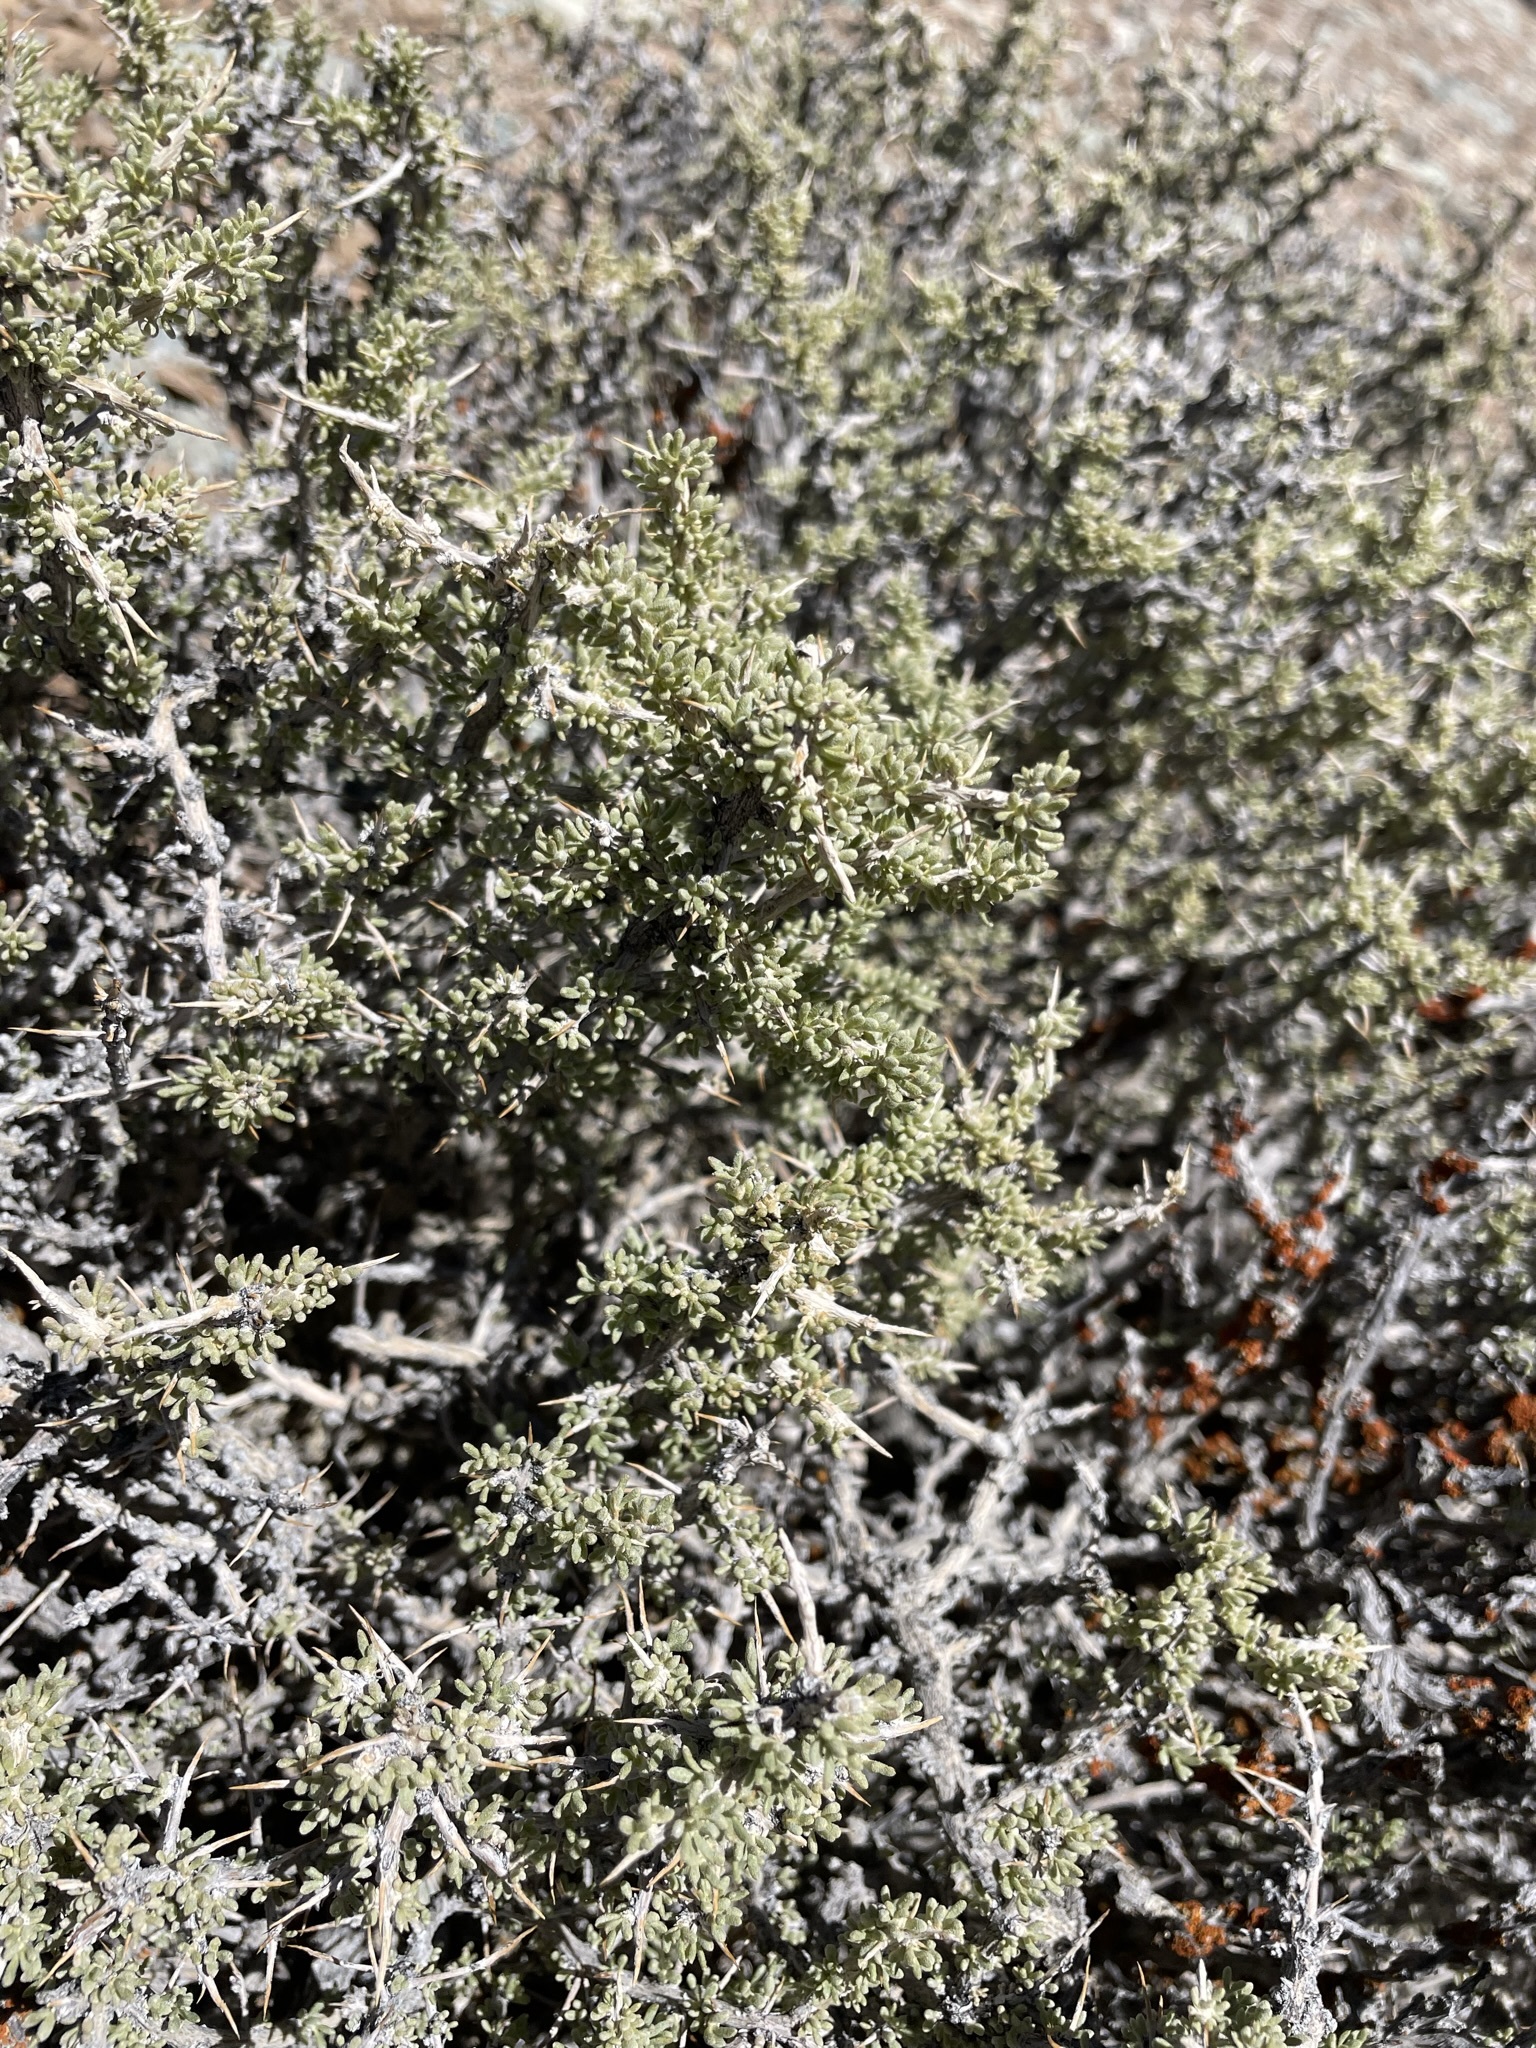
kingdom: Plantae
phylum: Tracheophyta
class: Magnoliopsida
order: Caryophyllales
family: Sarcobataceae
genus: Sarcobatus
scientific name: Sarcobatus baileyi
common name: Bailey greasewood
